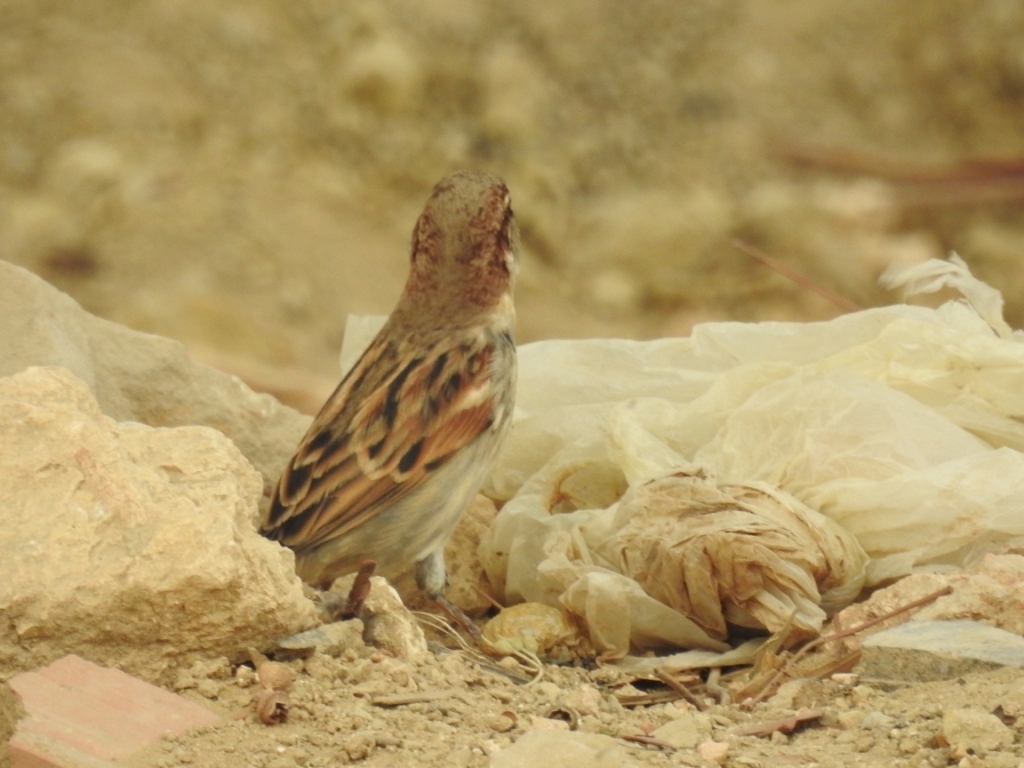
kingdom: Animalia
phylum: Chordata
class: Aves
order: Passeriformes
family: Passeridae
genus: Passer
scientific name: Passer domesticus
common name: House sparrow
